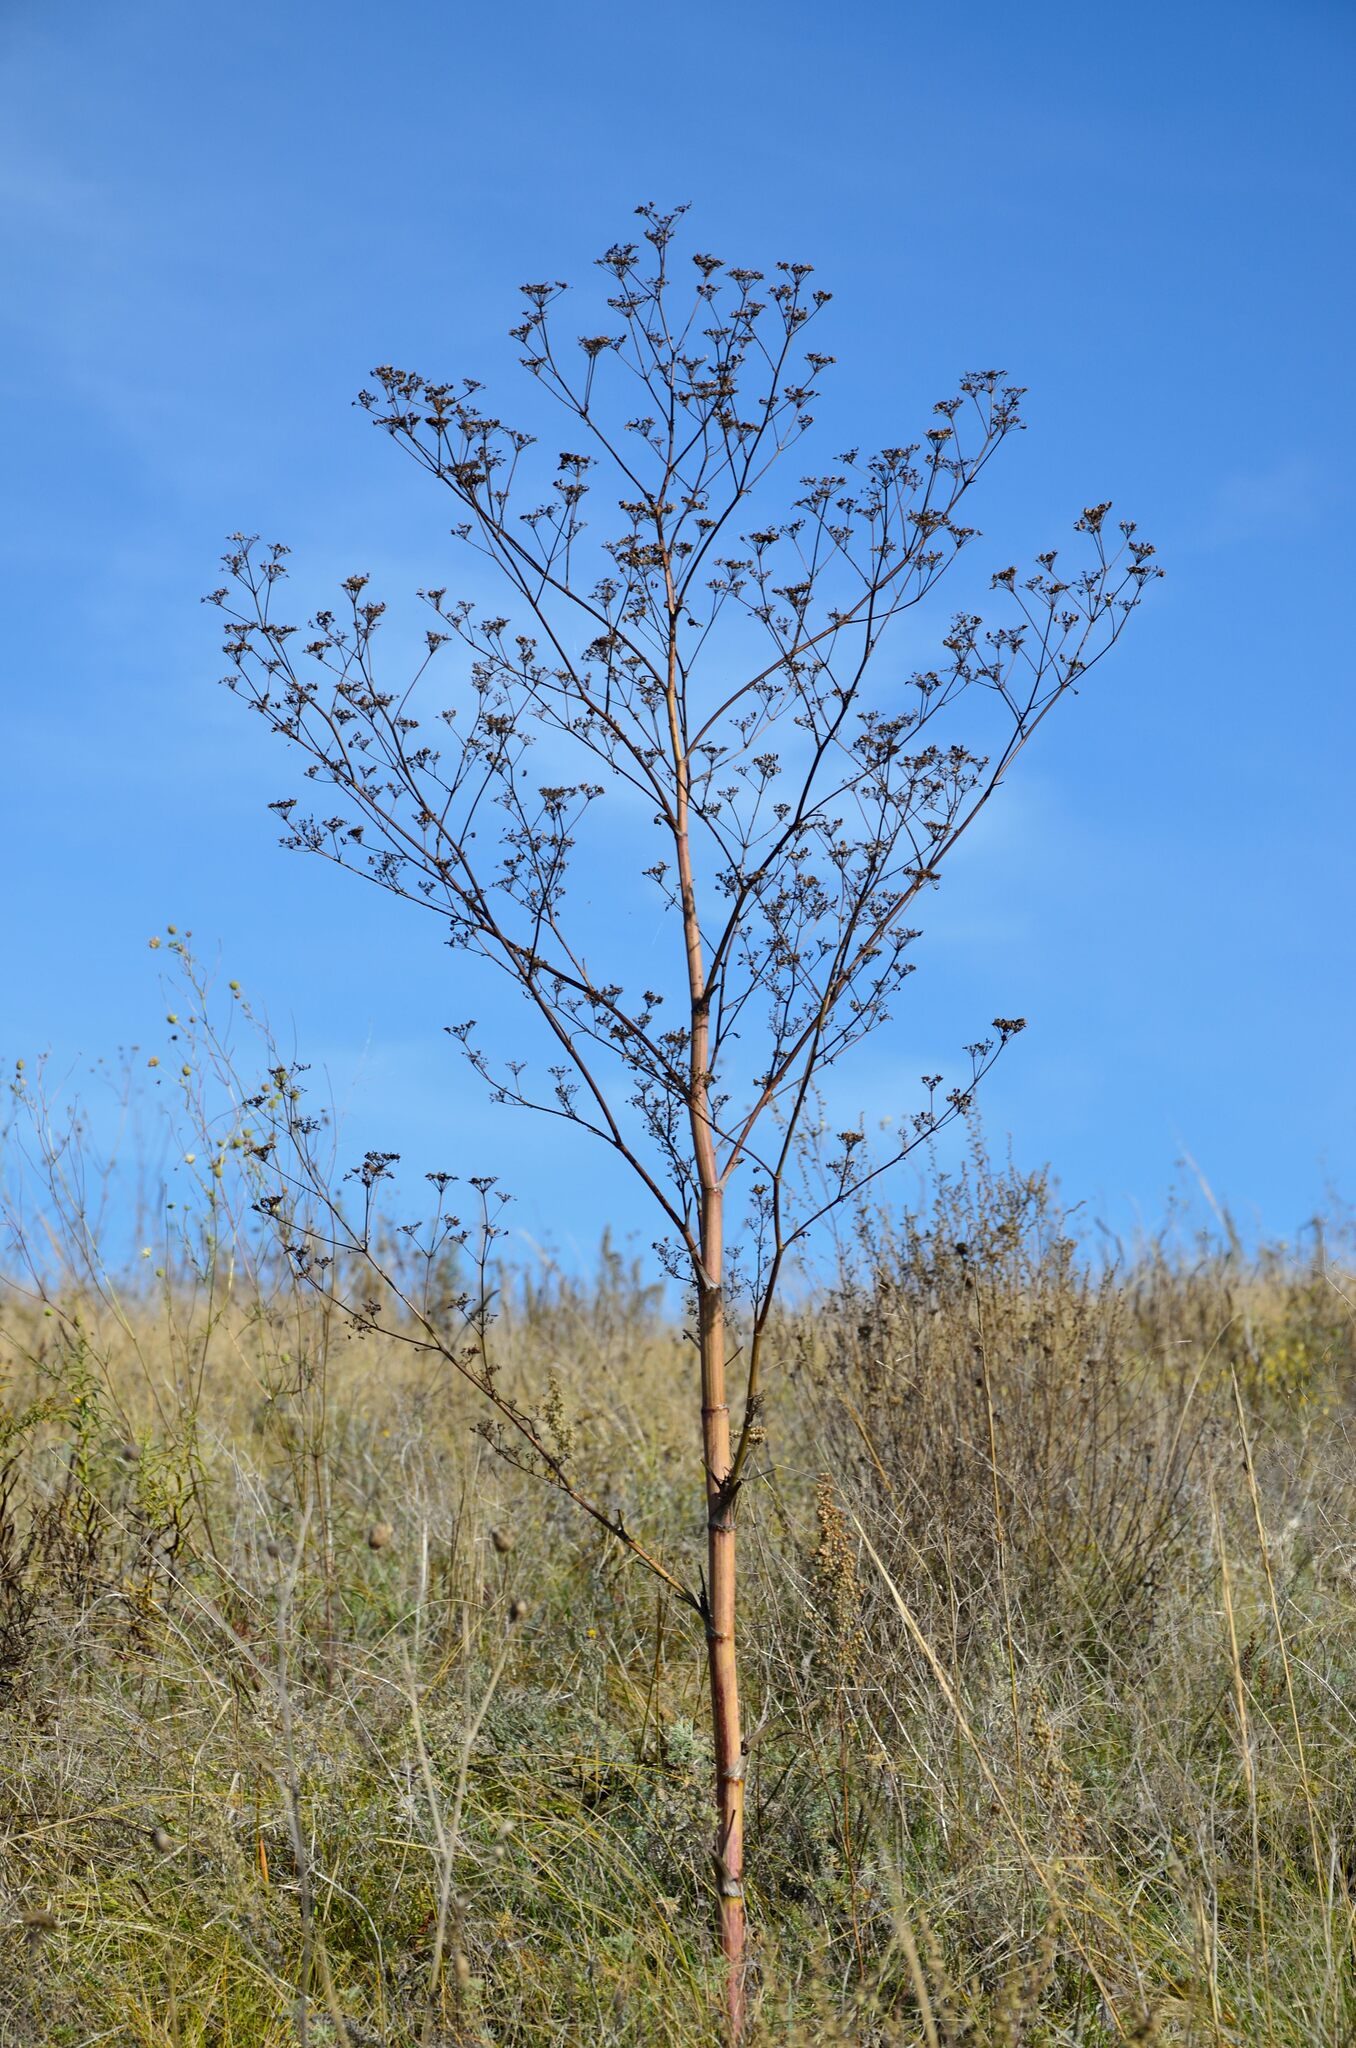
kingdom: Plantae
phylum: Tracheophyta
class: Magnoliopsida
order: Apiales
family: Apiaceae
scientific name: Apiaceae
